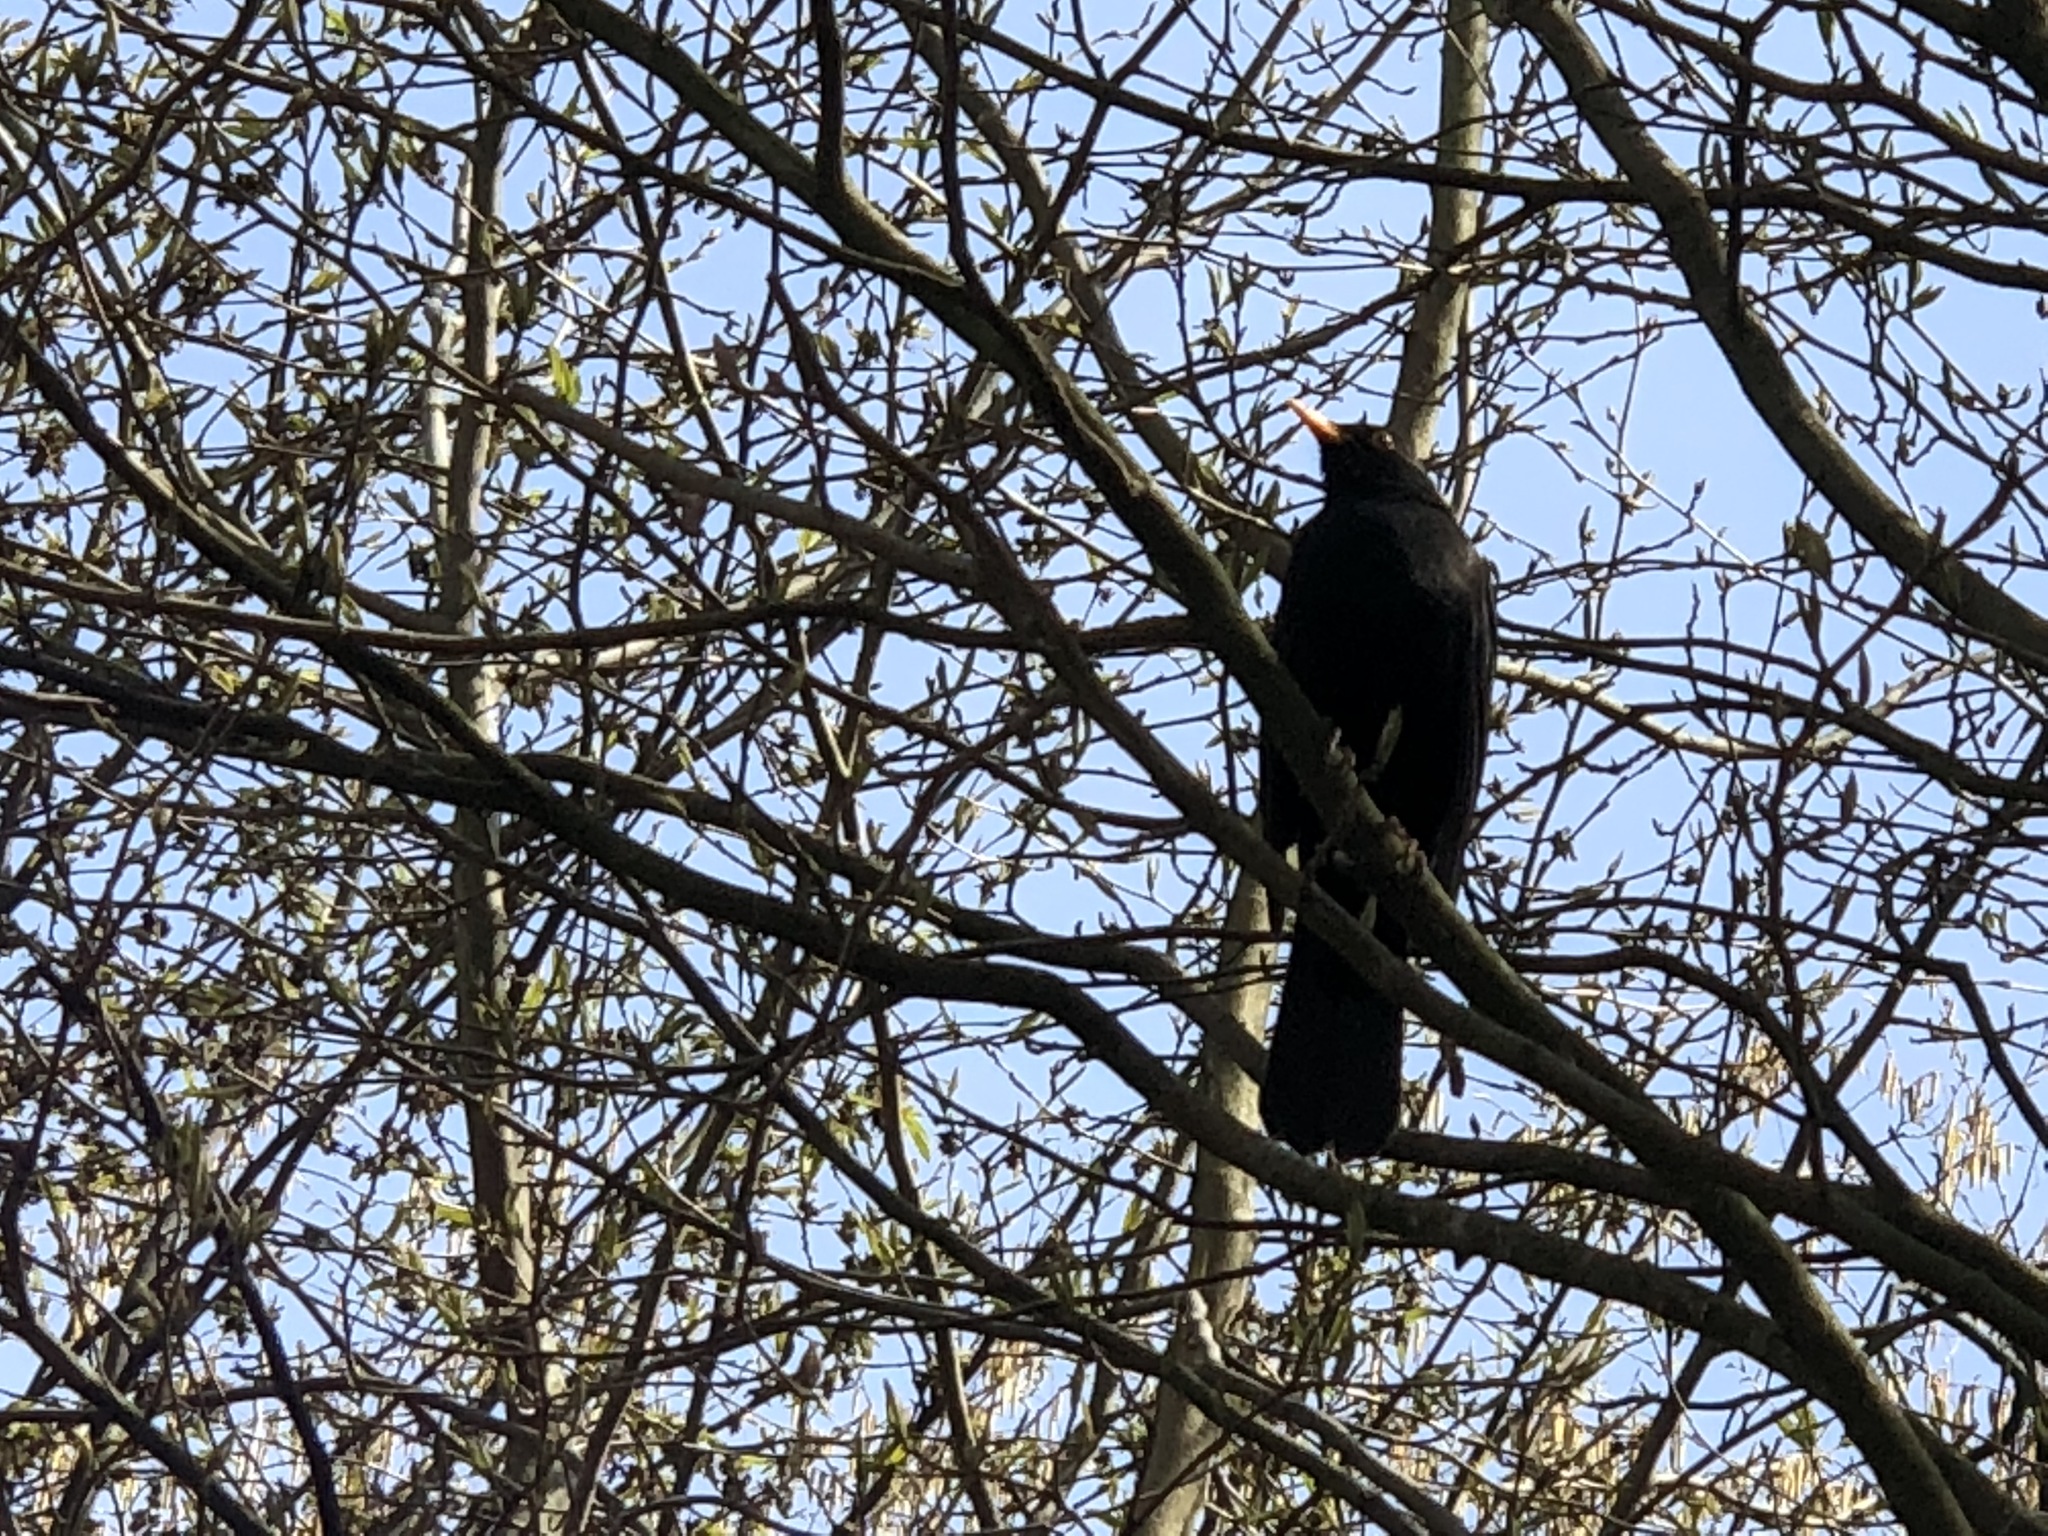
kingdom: Animalia
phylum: Chordata
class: Aves
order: Passeriformes
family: Turdidae
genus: Turdus
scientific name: Turdus merula
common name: Common blackbird
